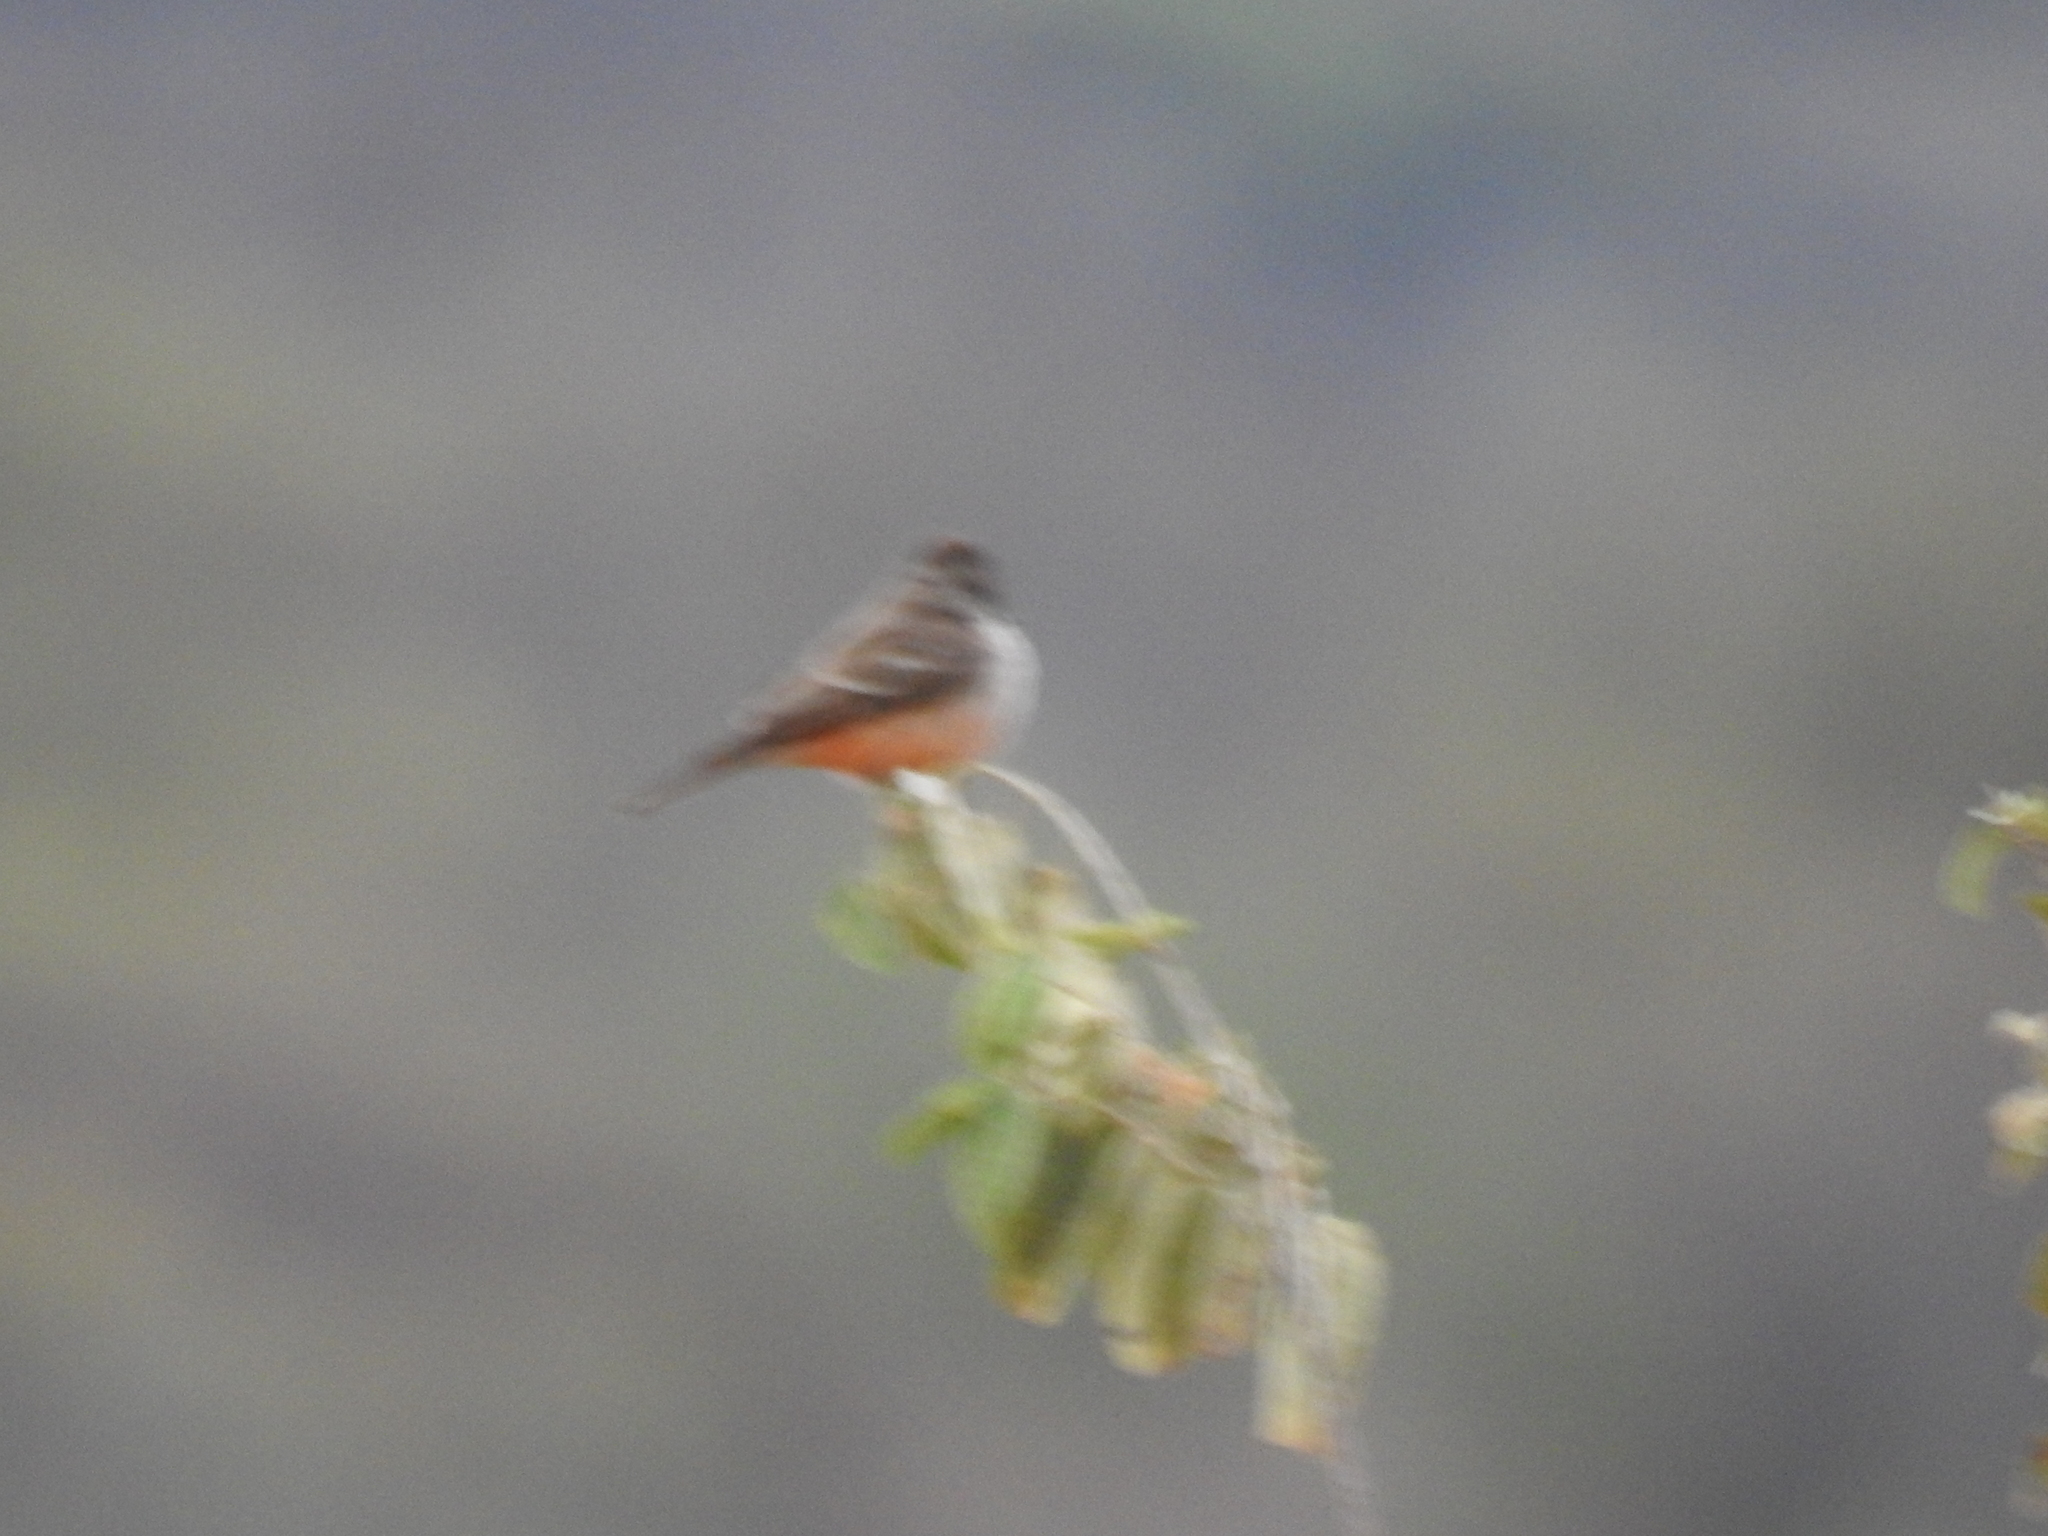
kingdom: Animalia
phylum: Chordata
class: Aves
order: Passeriformes
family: Tyrannidae
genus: Pyrocephalus
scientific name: Pyrocephalus rubinus
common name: Vermilion flycatcher
